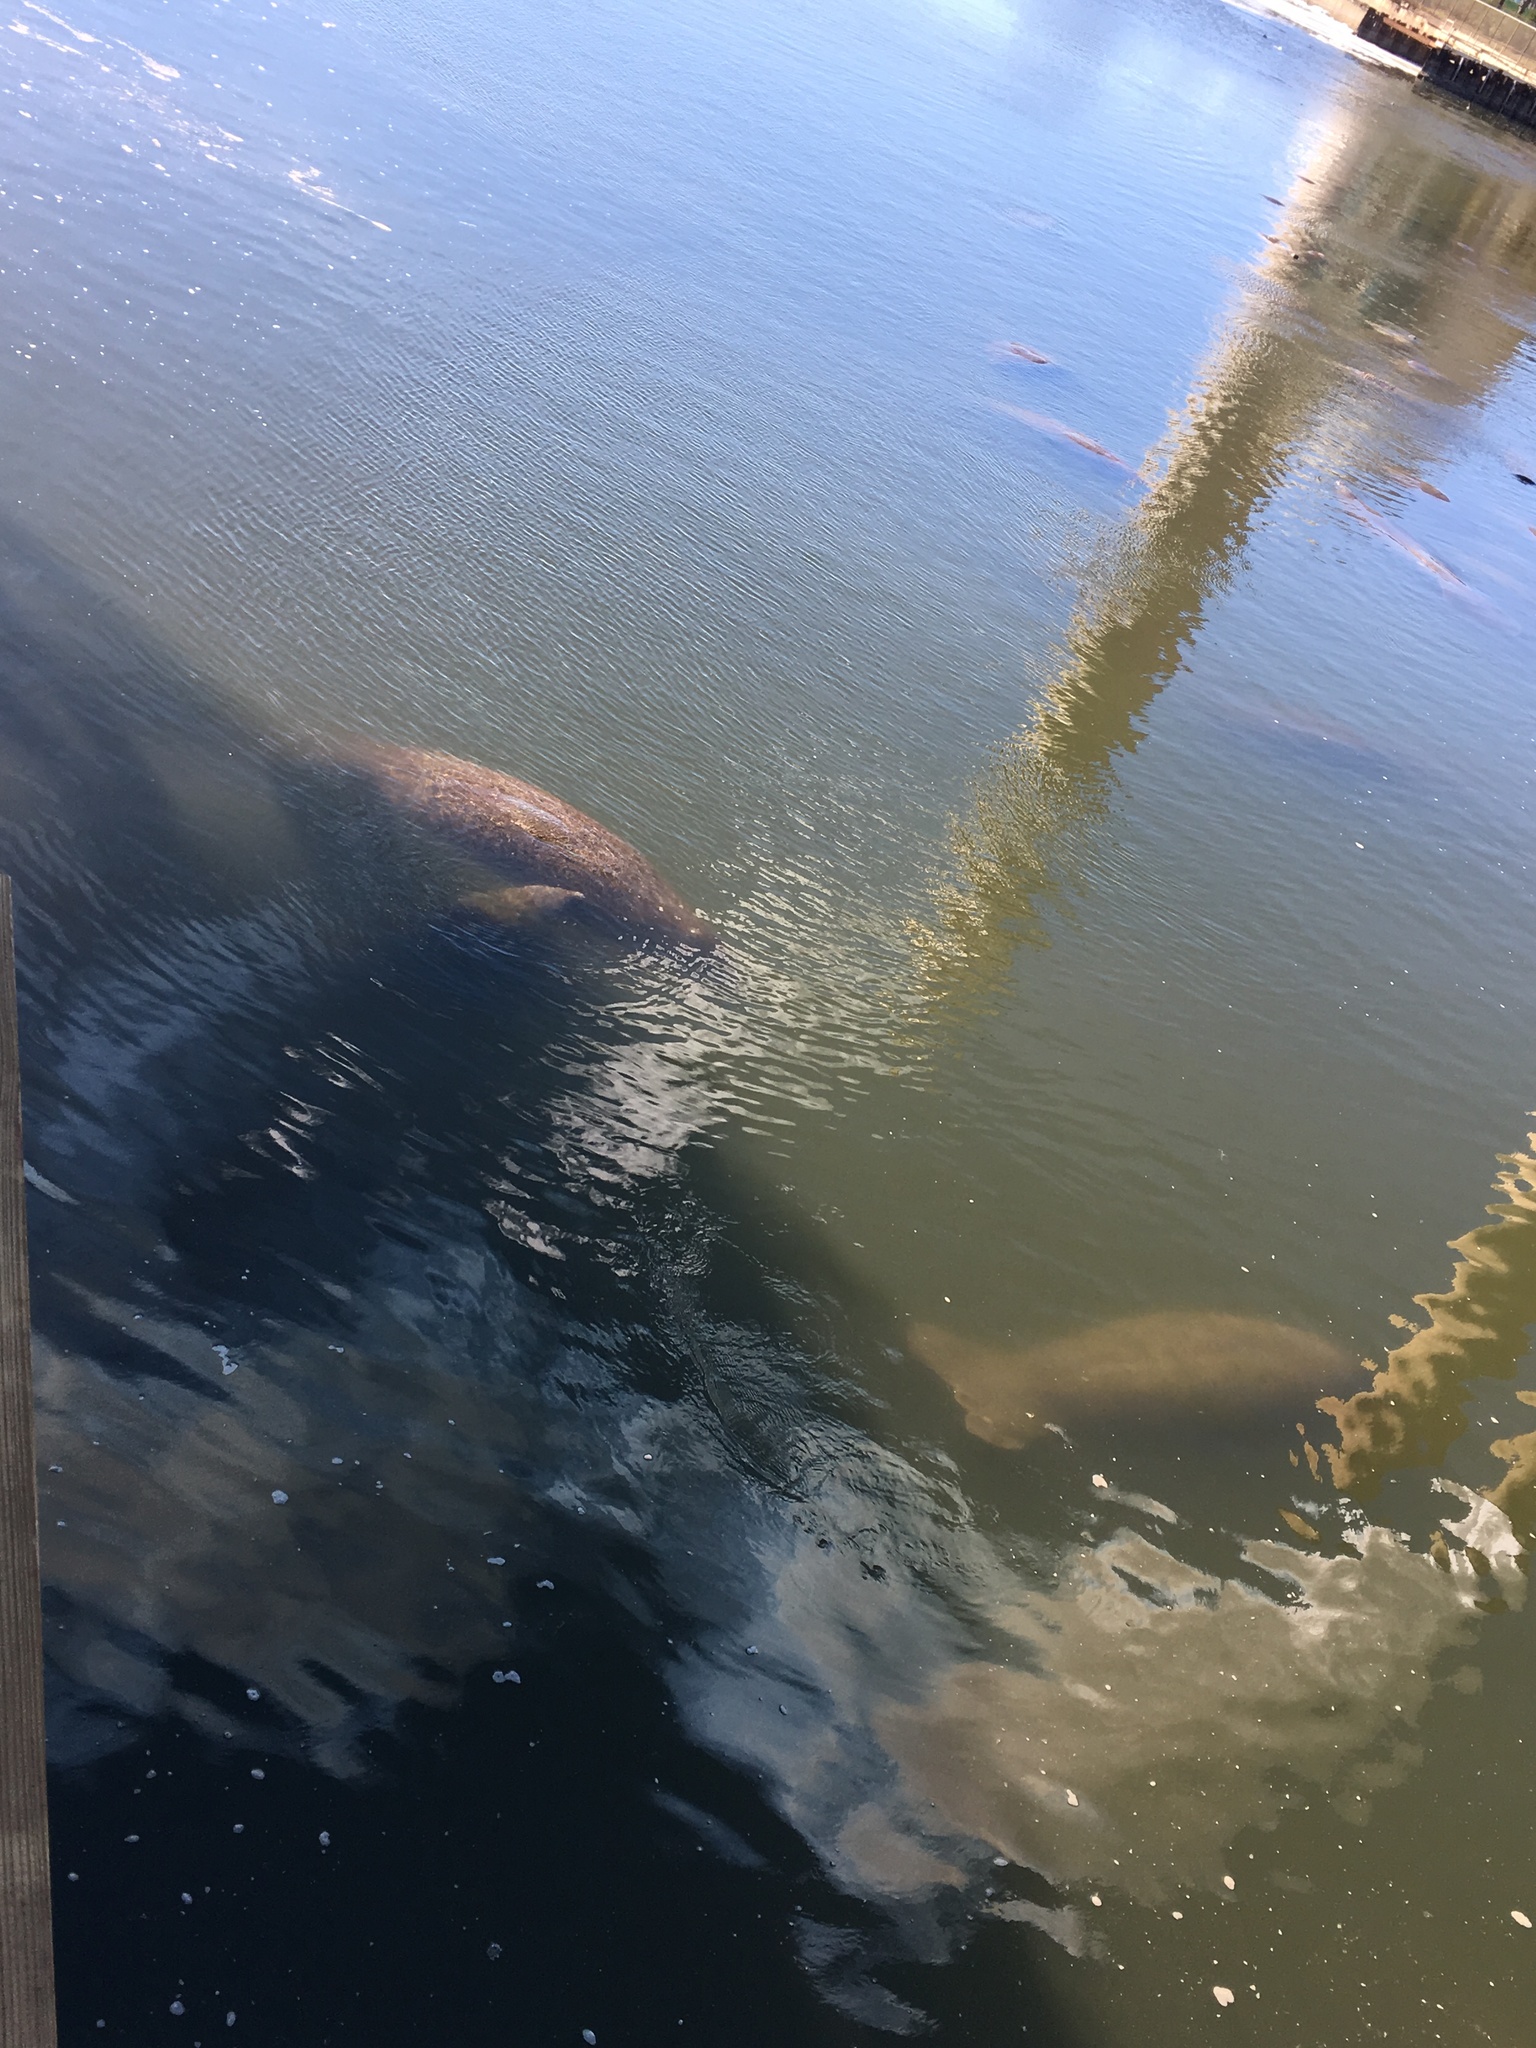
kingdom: Animalia
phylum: Chordata
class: Mammalia
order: Sirenia
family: Trichechidae
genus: Trichechus
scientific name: Trichechus manatus
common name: West indian manatee
